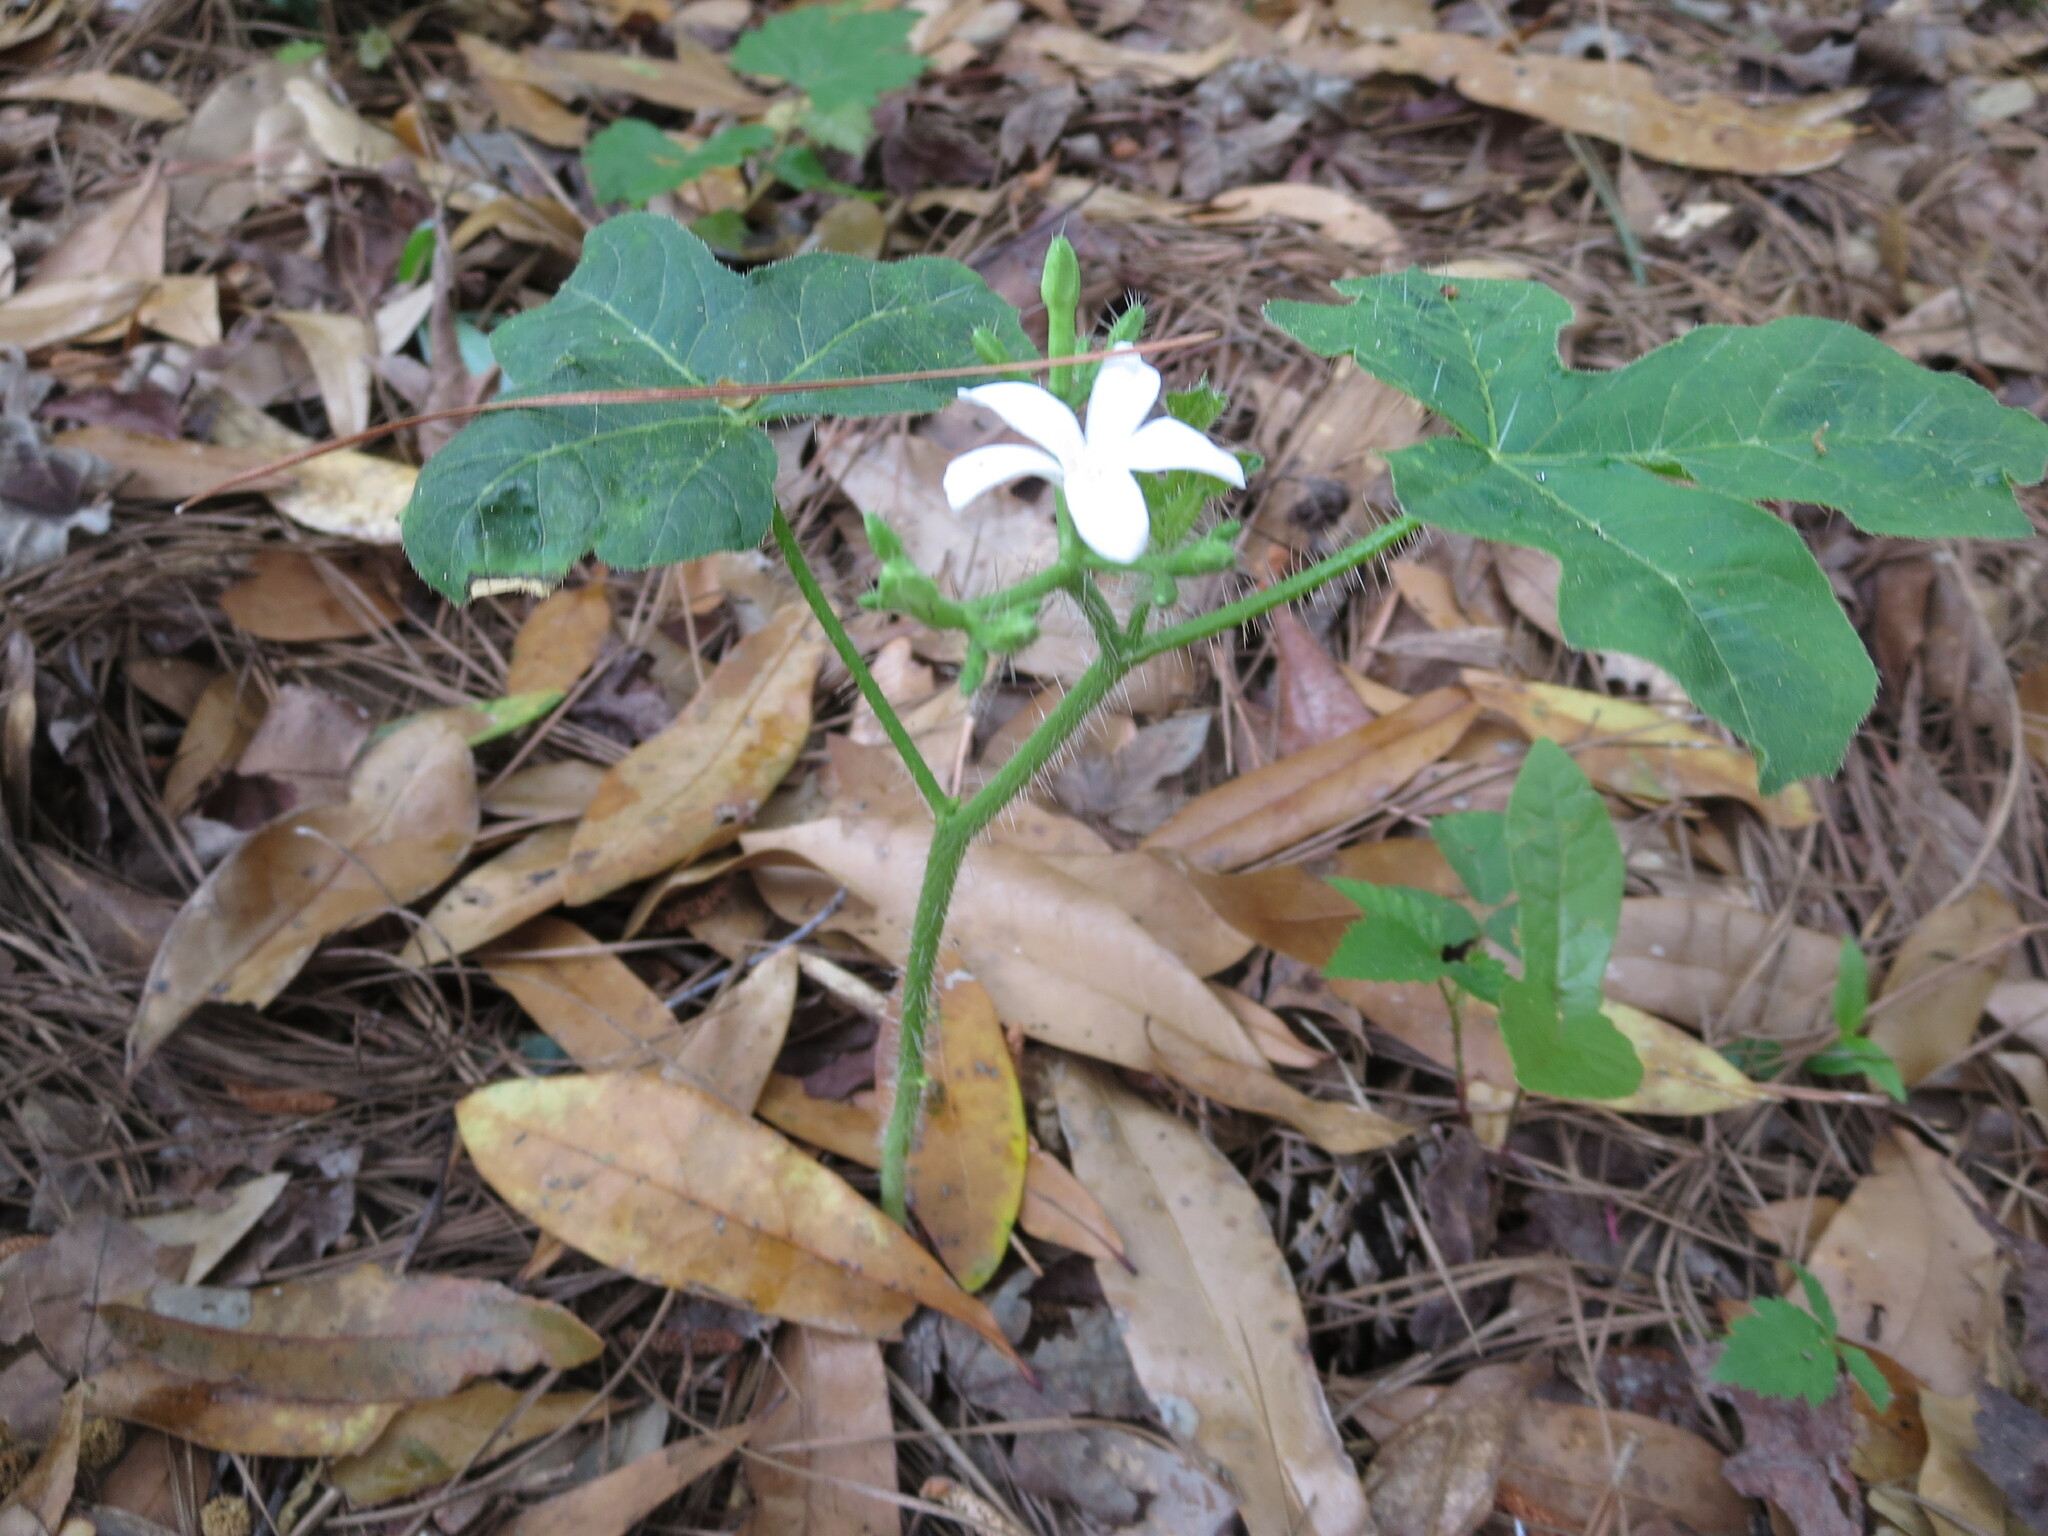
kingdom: Plantae
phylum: Tracheophyta
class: Magnoliopsida
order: Malpighiales
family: Euphorbiaceae
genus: Cnidoscolus
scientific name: Cnidoscolus stimulosus
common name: Bull-nettle
